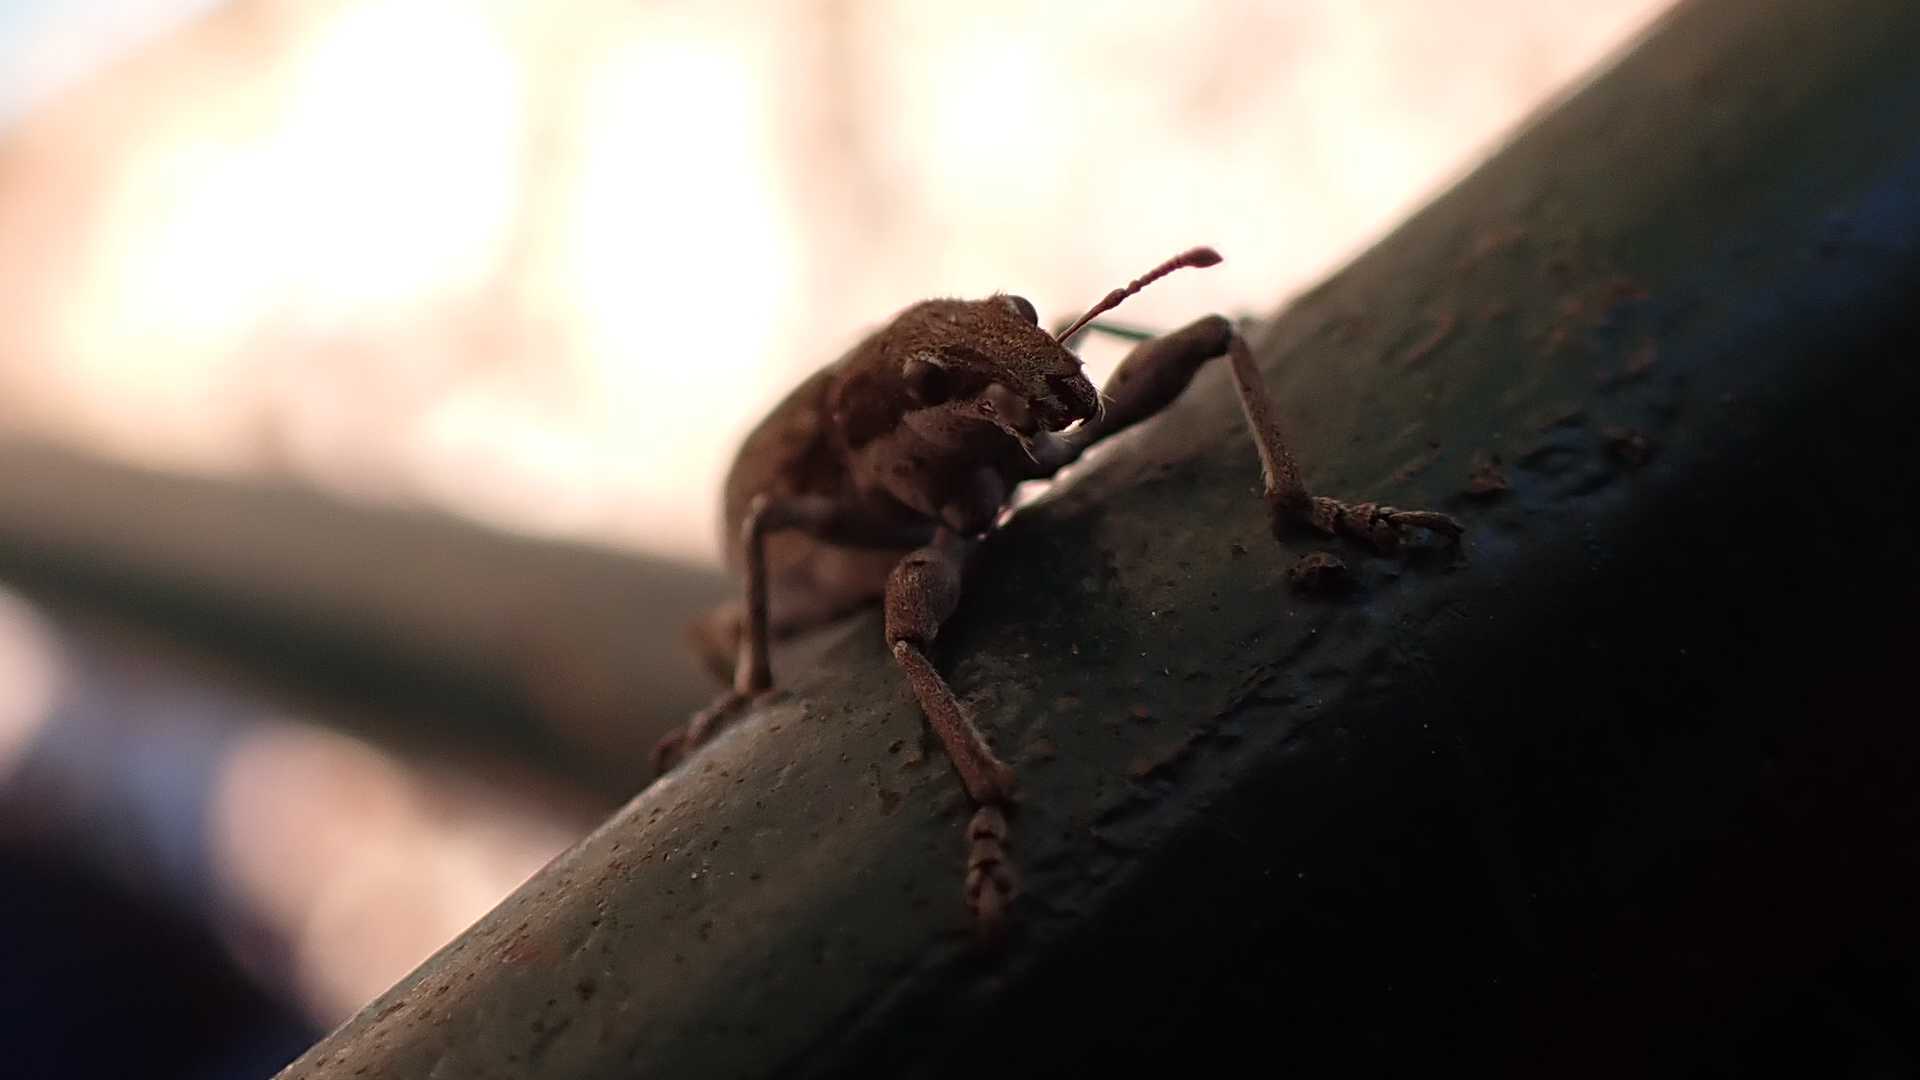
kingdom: Animalia
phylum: Arthropoda
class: Insecta
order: Coleoptera
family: Curculionidae
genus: Charagmus
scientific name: Charagmus griseus
